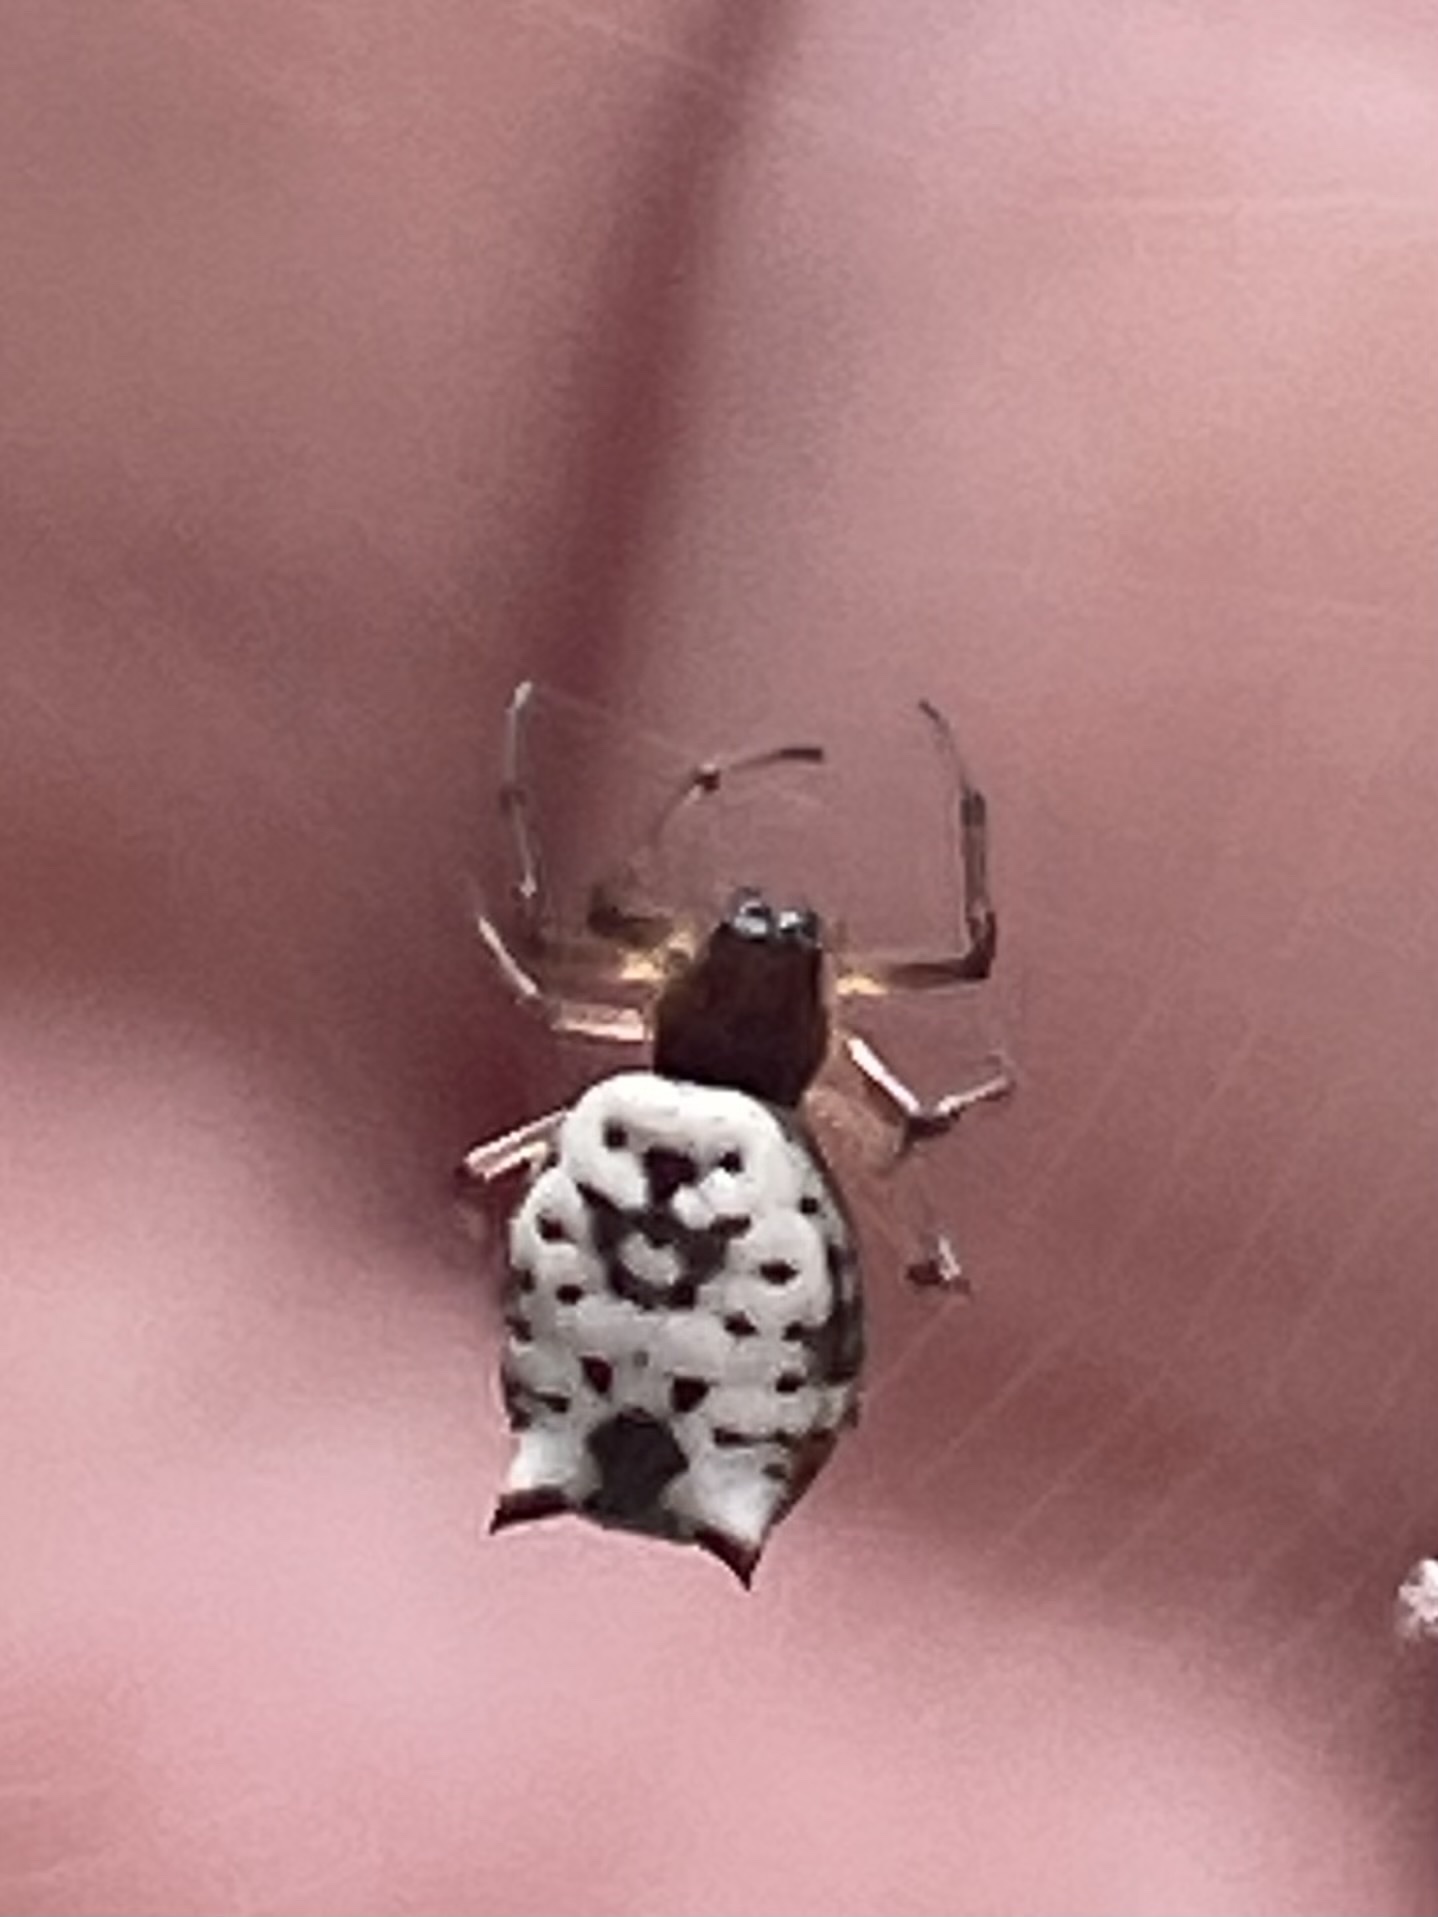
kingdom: Animalia
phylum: Arthropoda
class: Arachnida
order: Araneae
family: Araneidae
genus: Micrathena
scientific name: Micrathena mitrata
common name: Orb weavers
